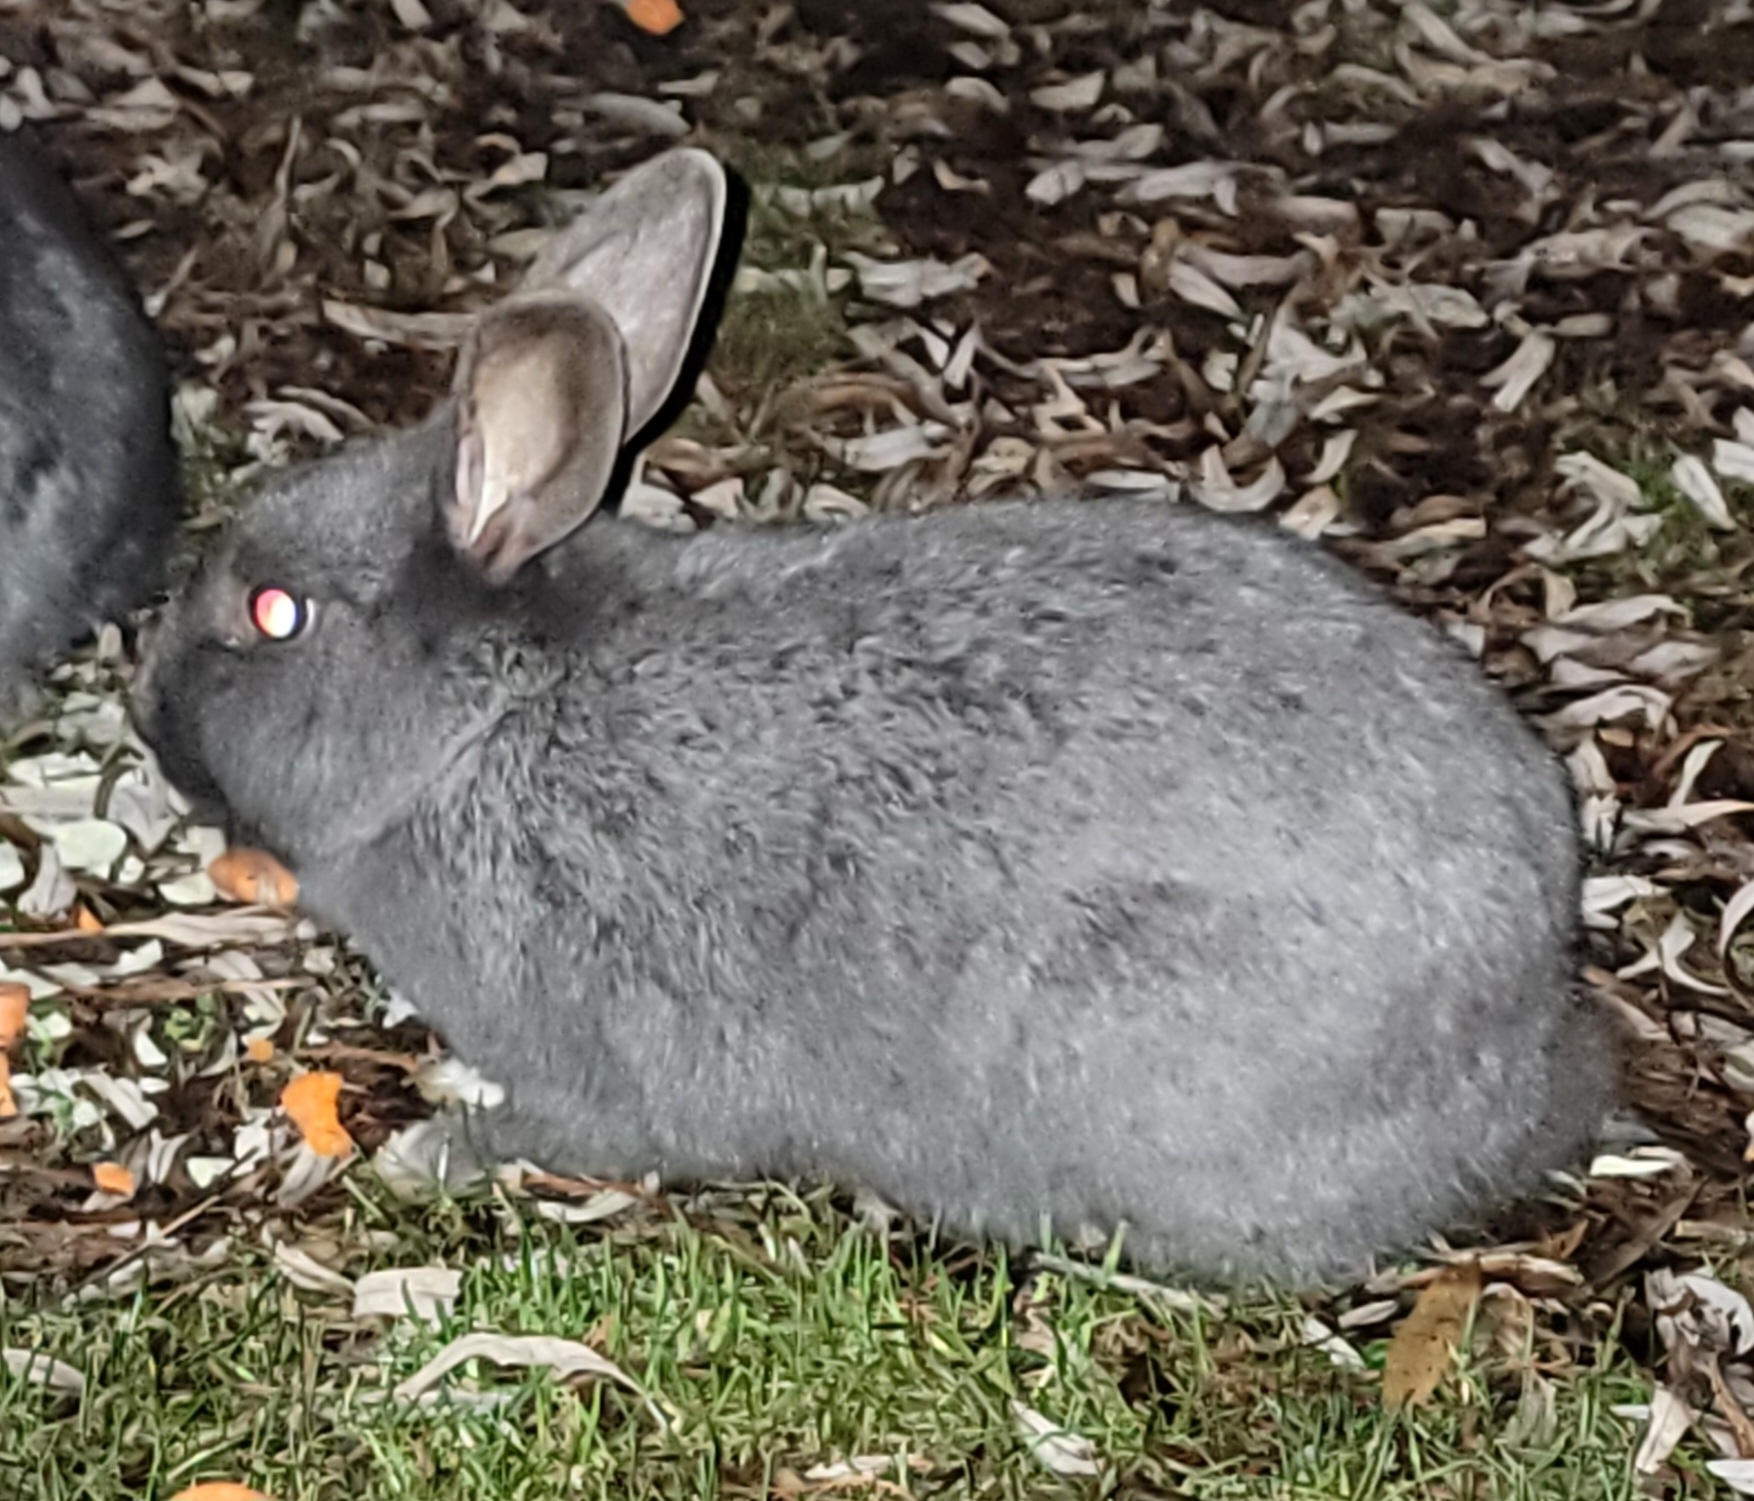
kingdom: Animalia
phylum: Chordata
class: Mammalia
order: Lagomorpha
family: Leporidae
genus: Oryctolagus
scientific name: Oryctolagus cuniculus
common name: European rabbit
